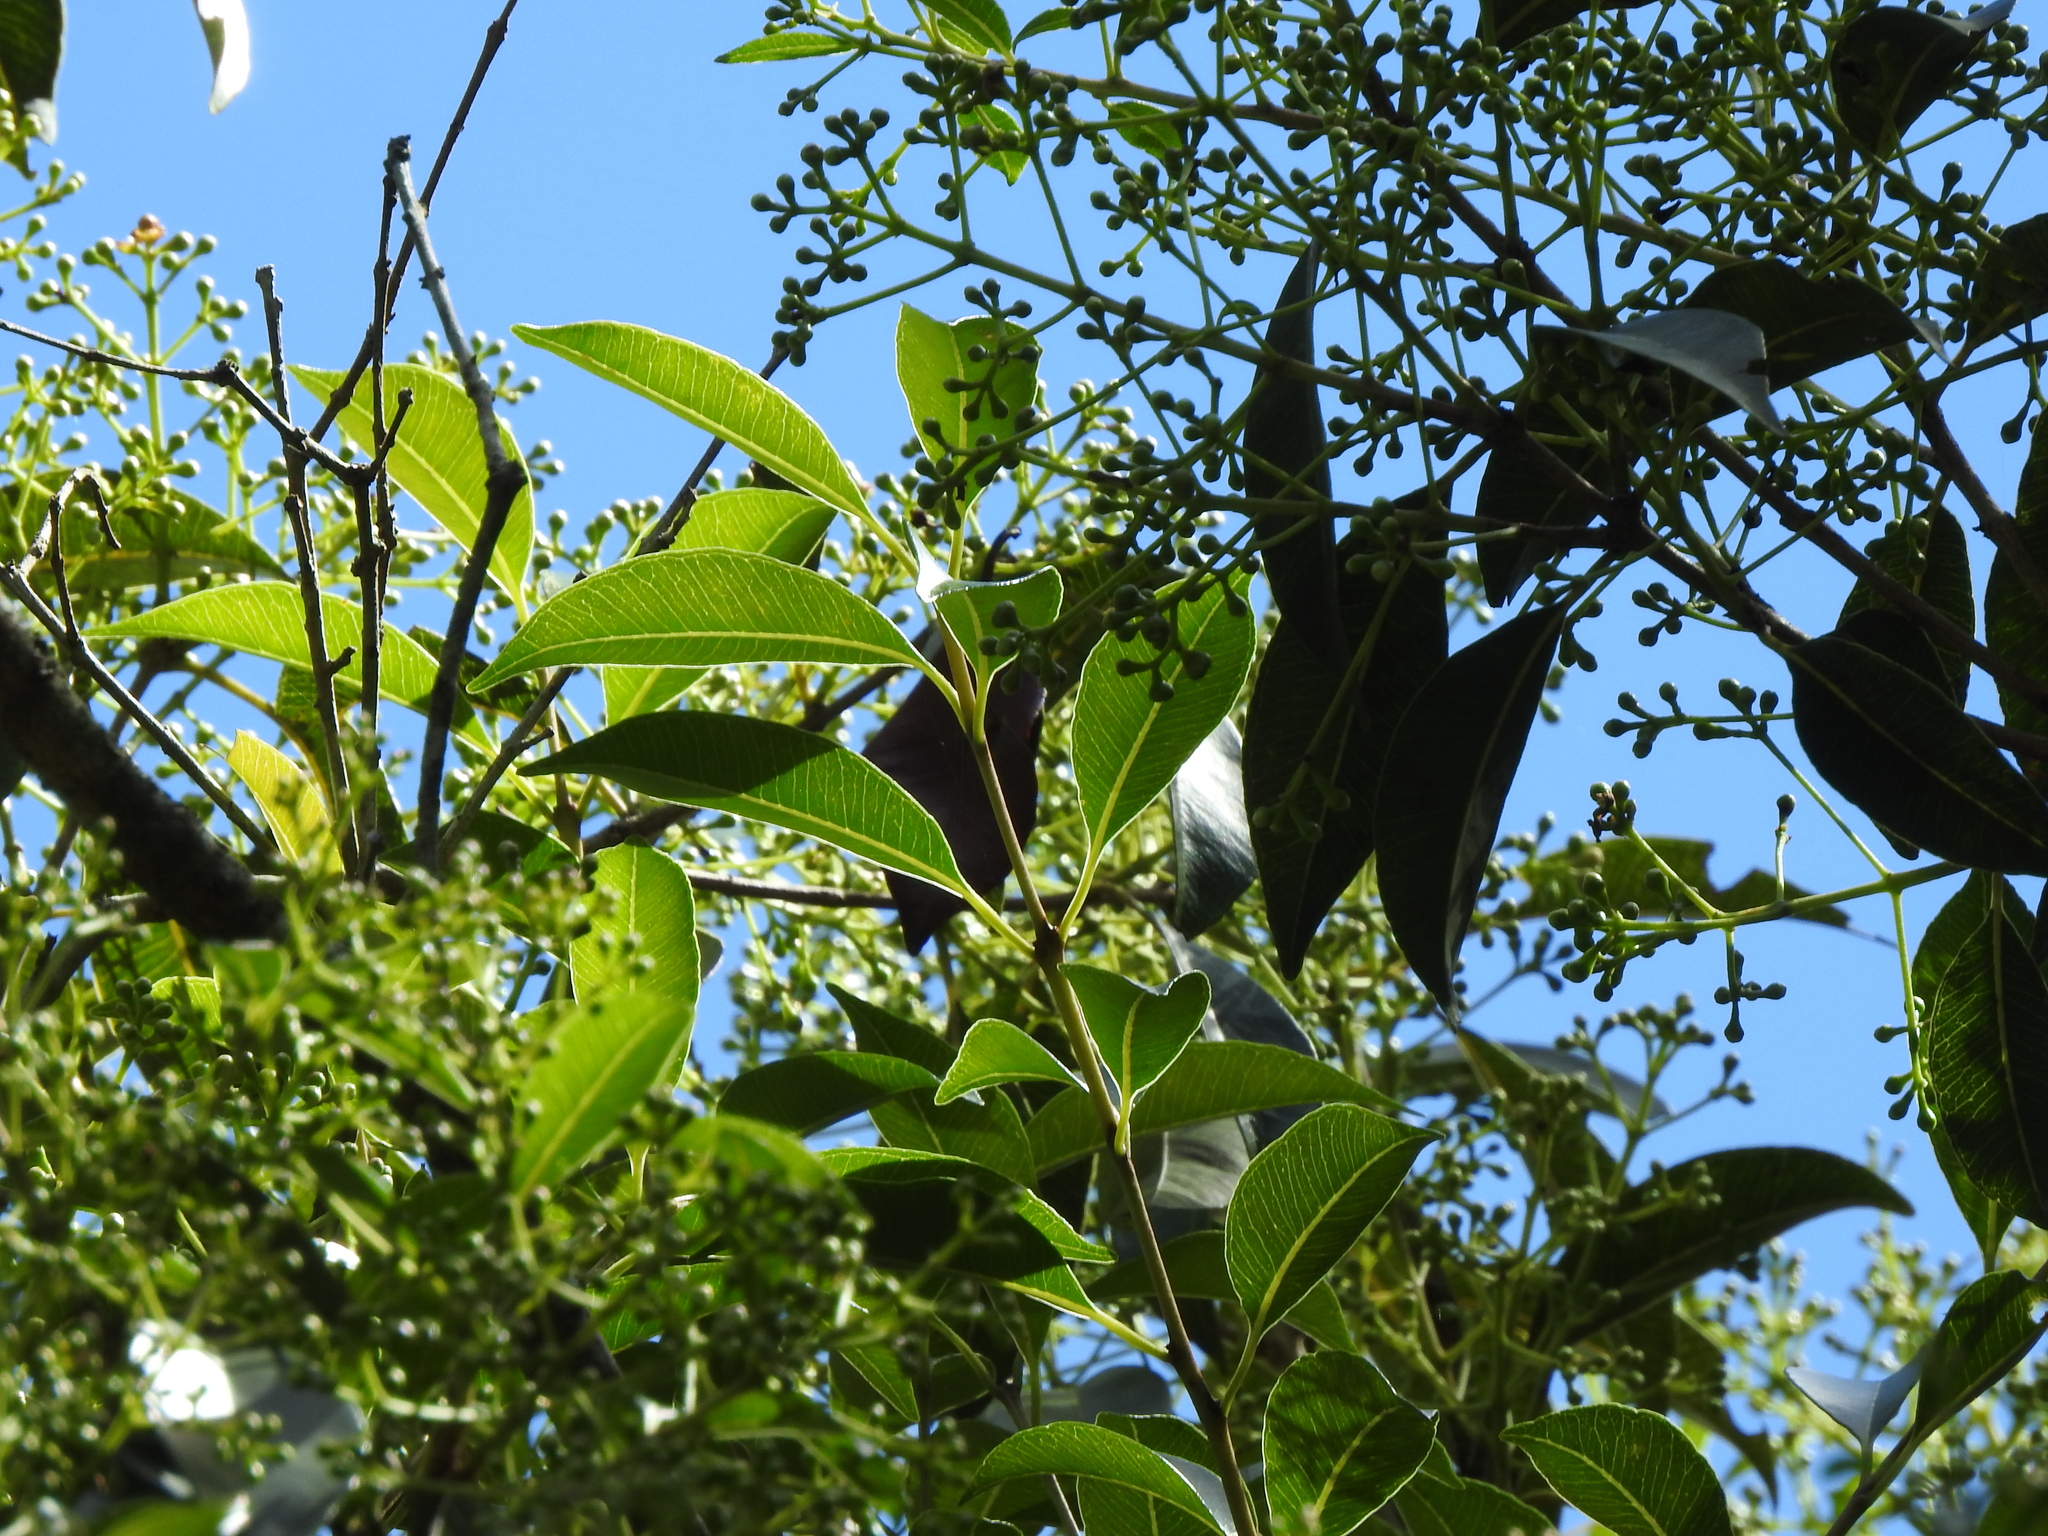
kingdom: Plantae
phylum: Tracheophyta
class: Magnoliopsida
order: Myrtales
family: Myrtaceae
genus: Syzygium
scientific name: Syzygium formosanum
